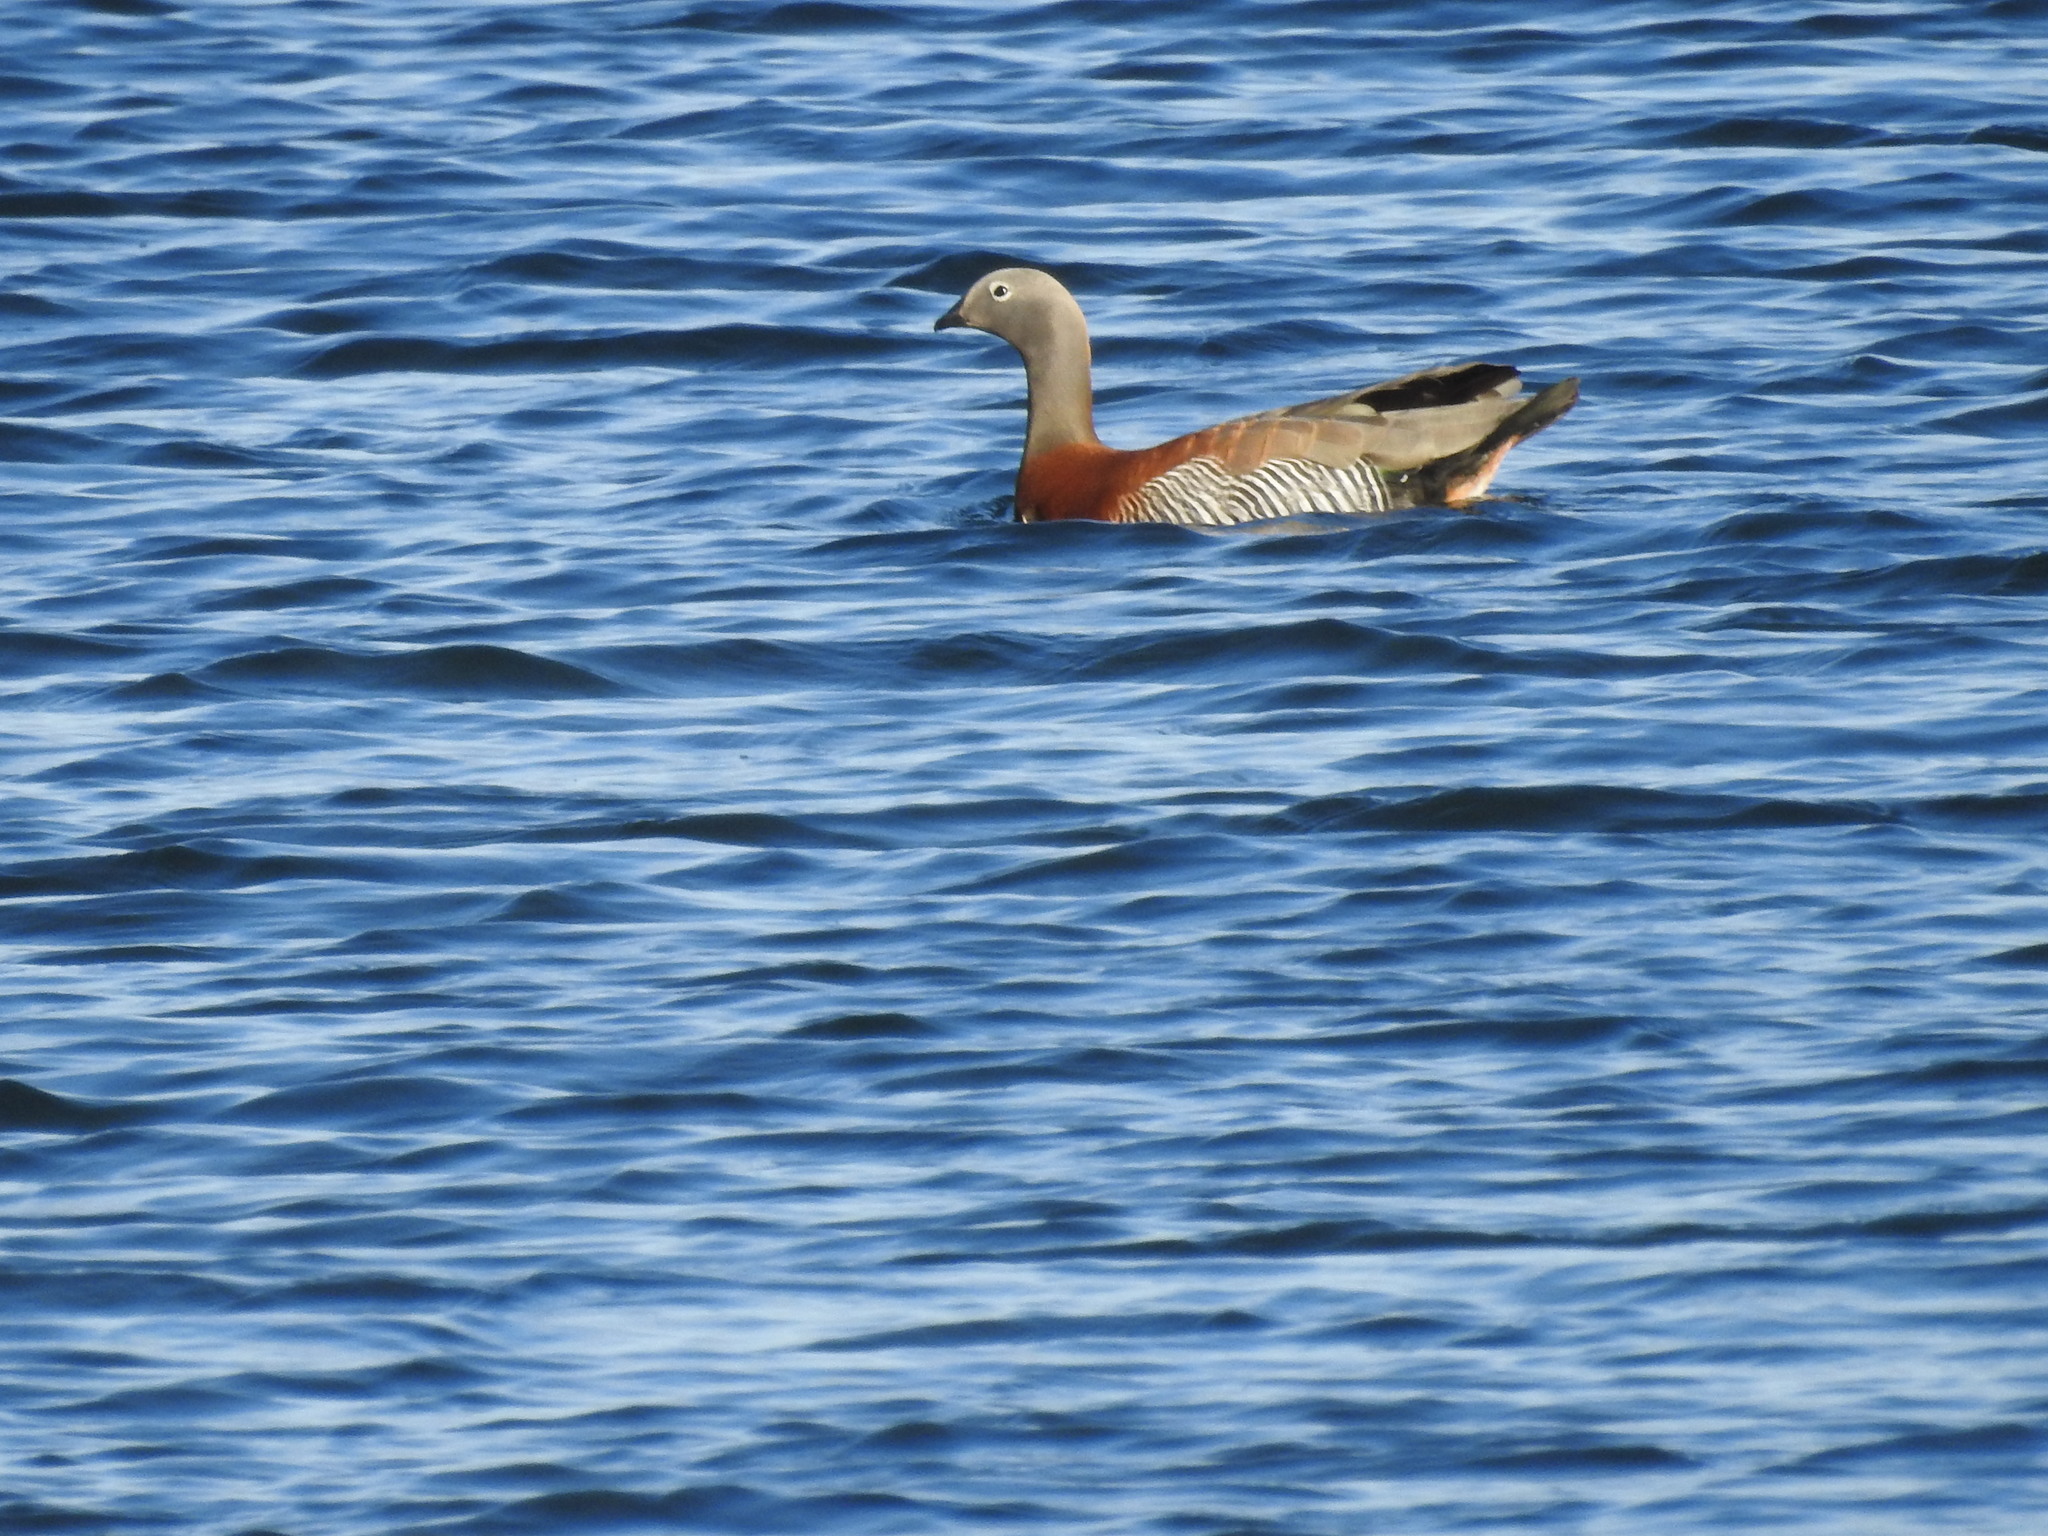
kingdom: Animalia
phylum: Chordata
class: Aves
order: Anseriformes
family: Anatidae
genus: Chloephaga
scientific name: Chloephaga poliocephala
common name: Ashy-headed goose
